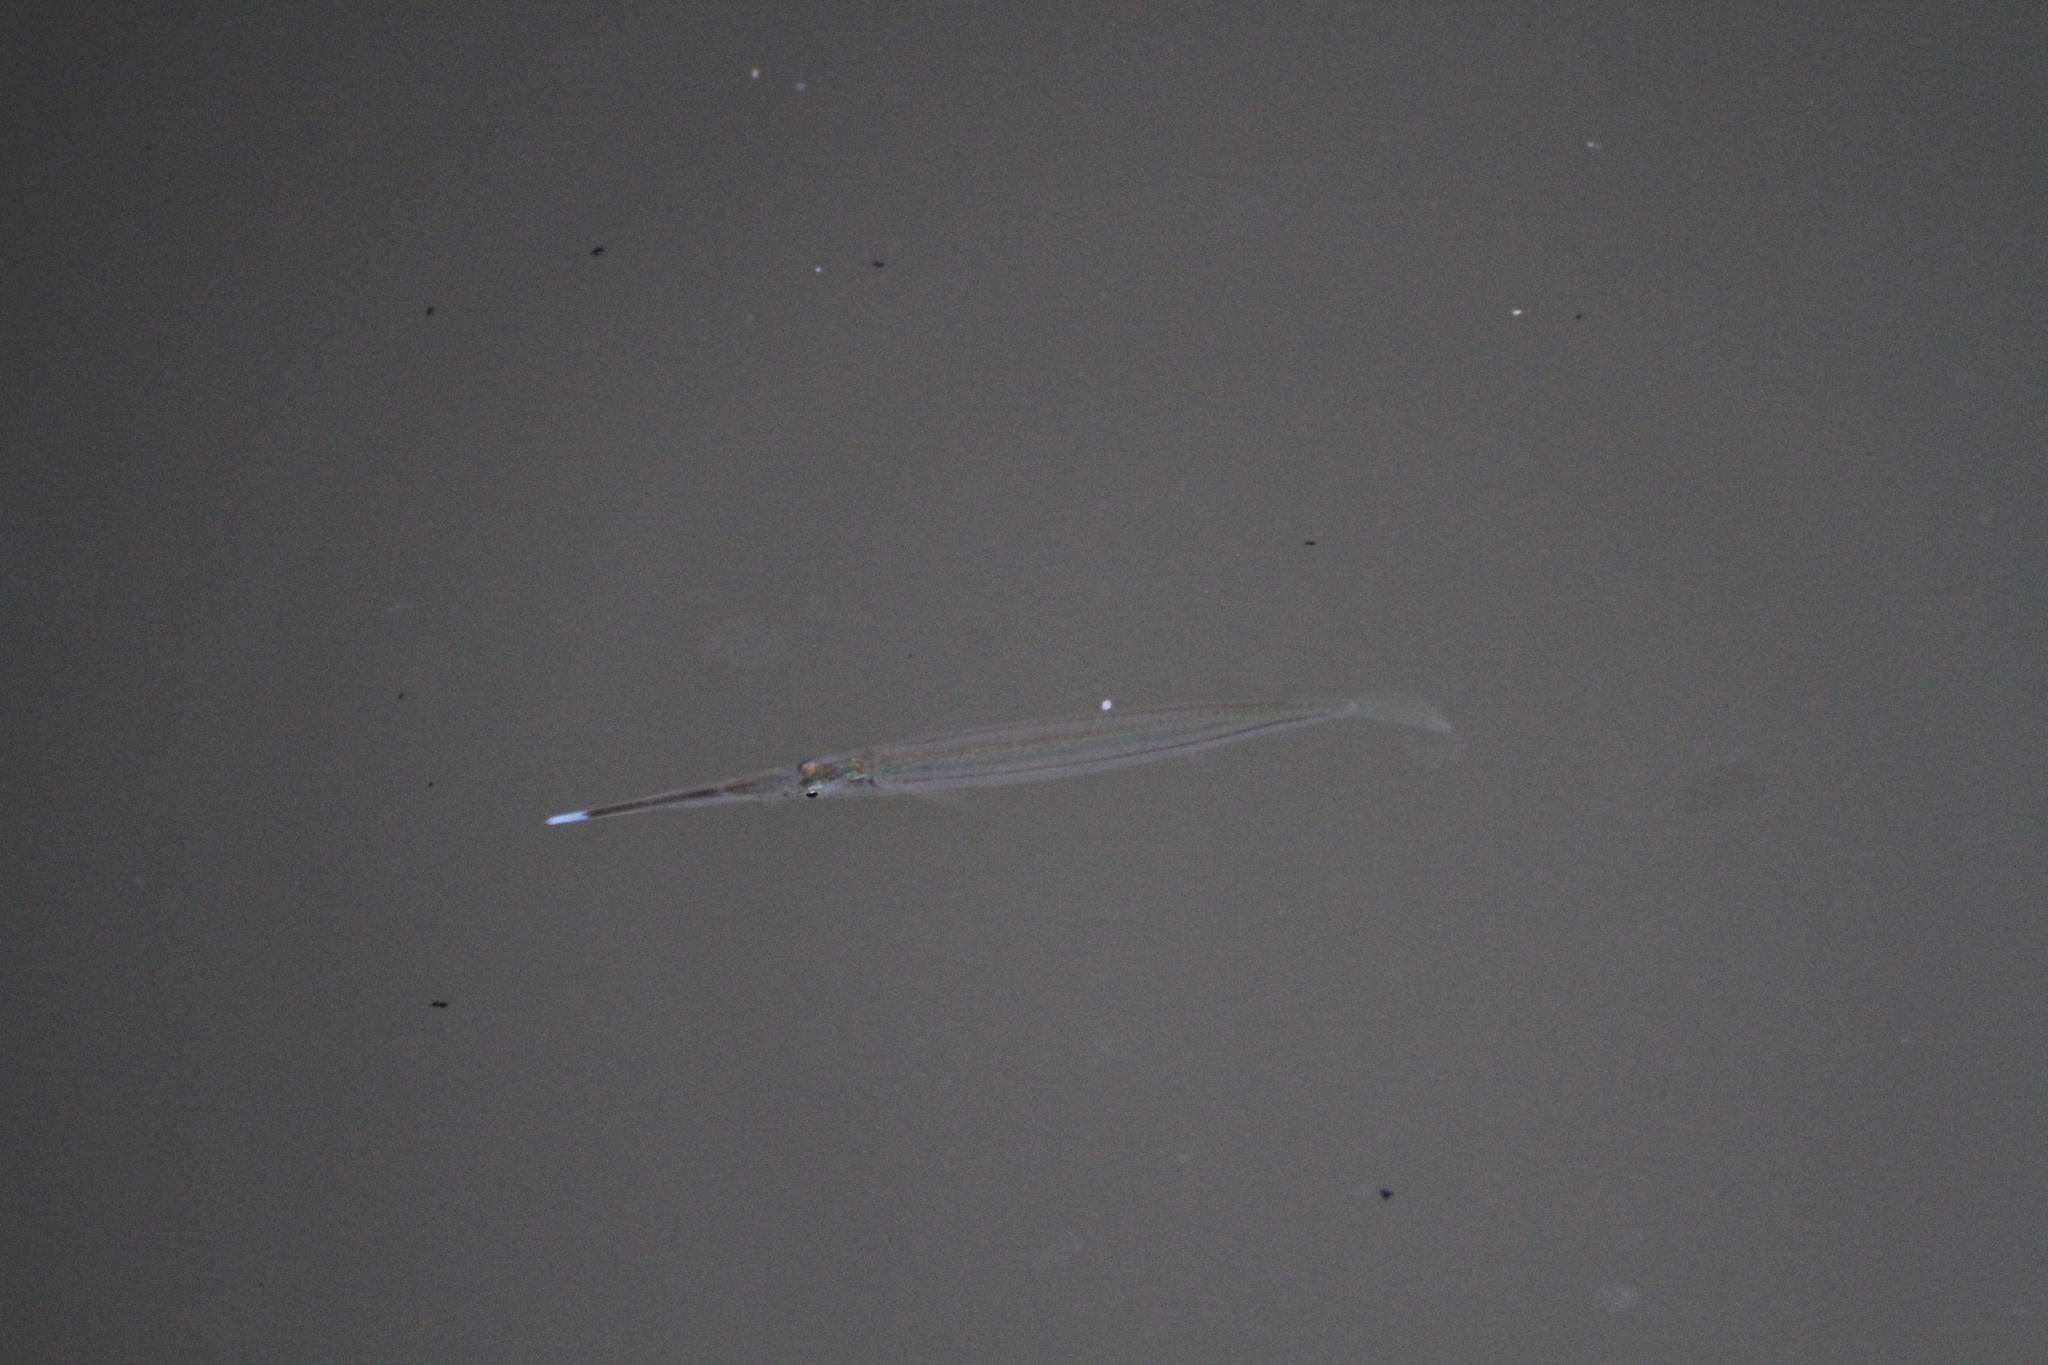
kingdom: Animalia
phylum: Chordata
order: Beloniformes
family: Zenarchopteridae
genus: Zenarchopterus
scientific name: Zenarchopterus buffonis
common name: Buffon's river-garfish
